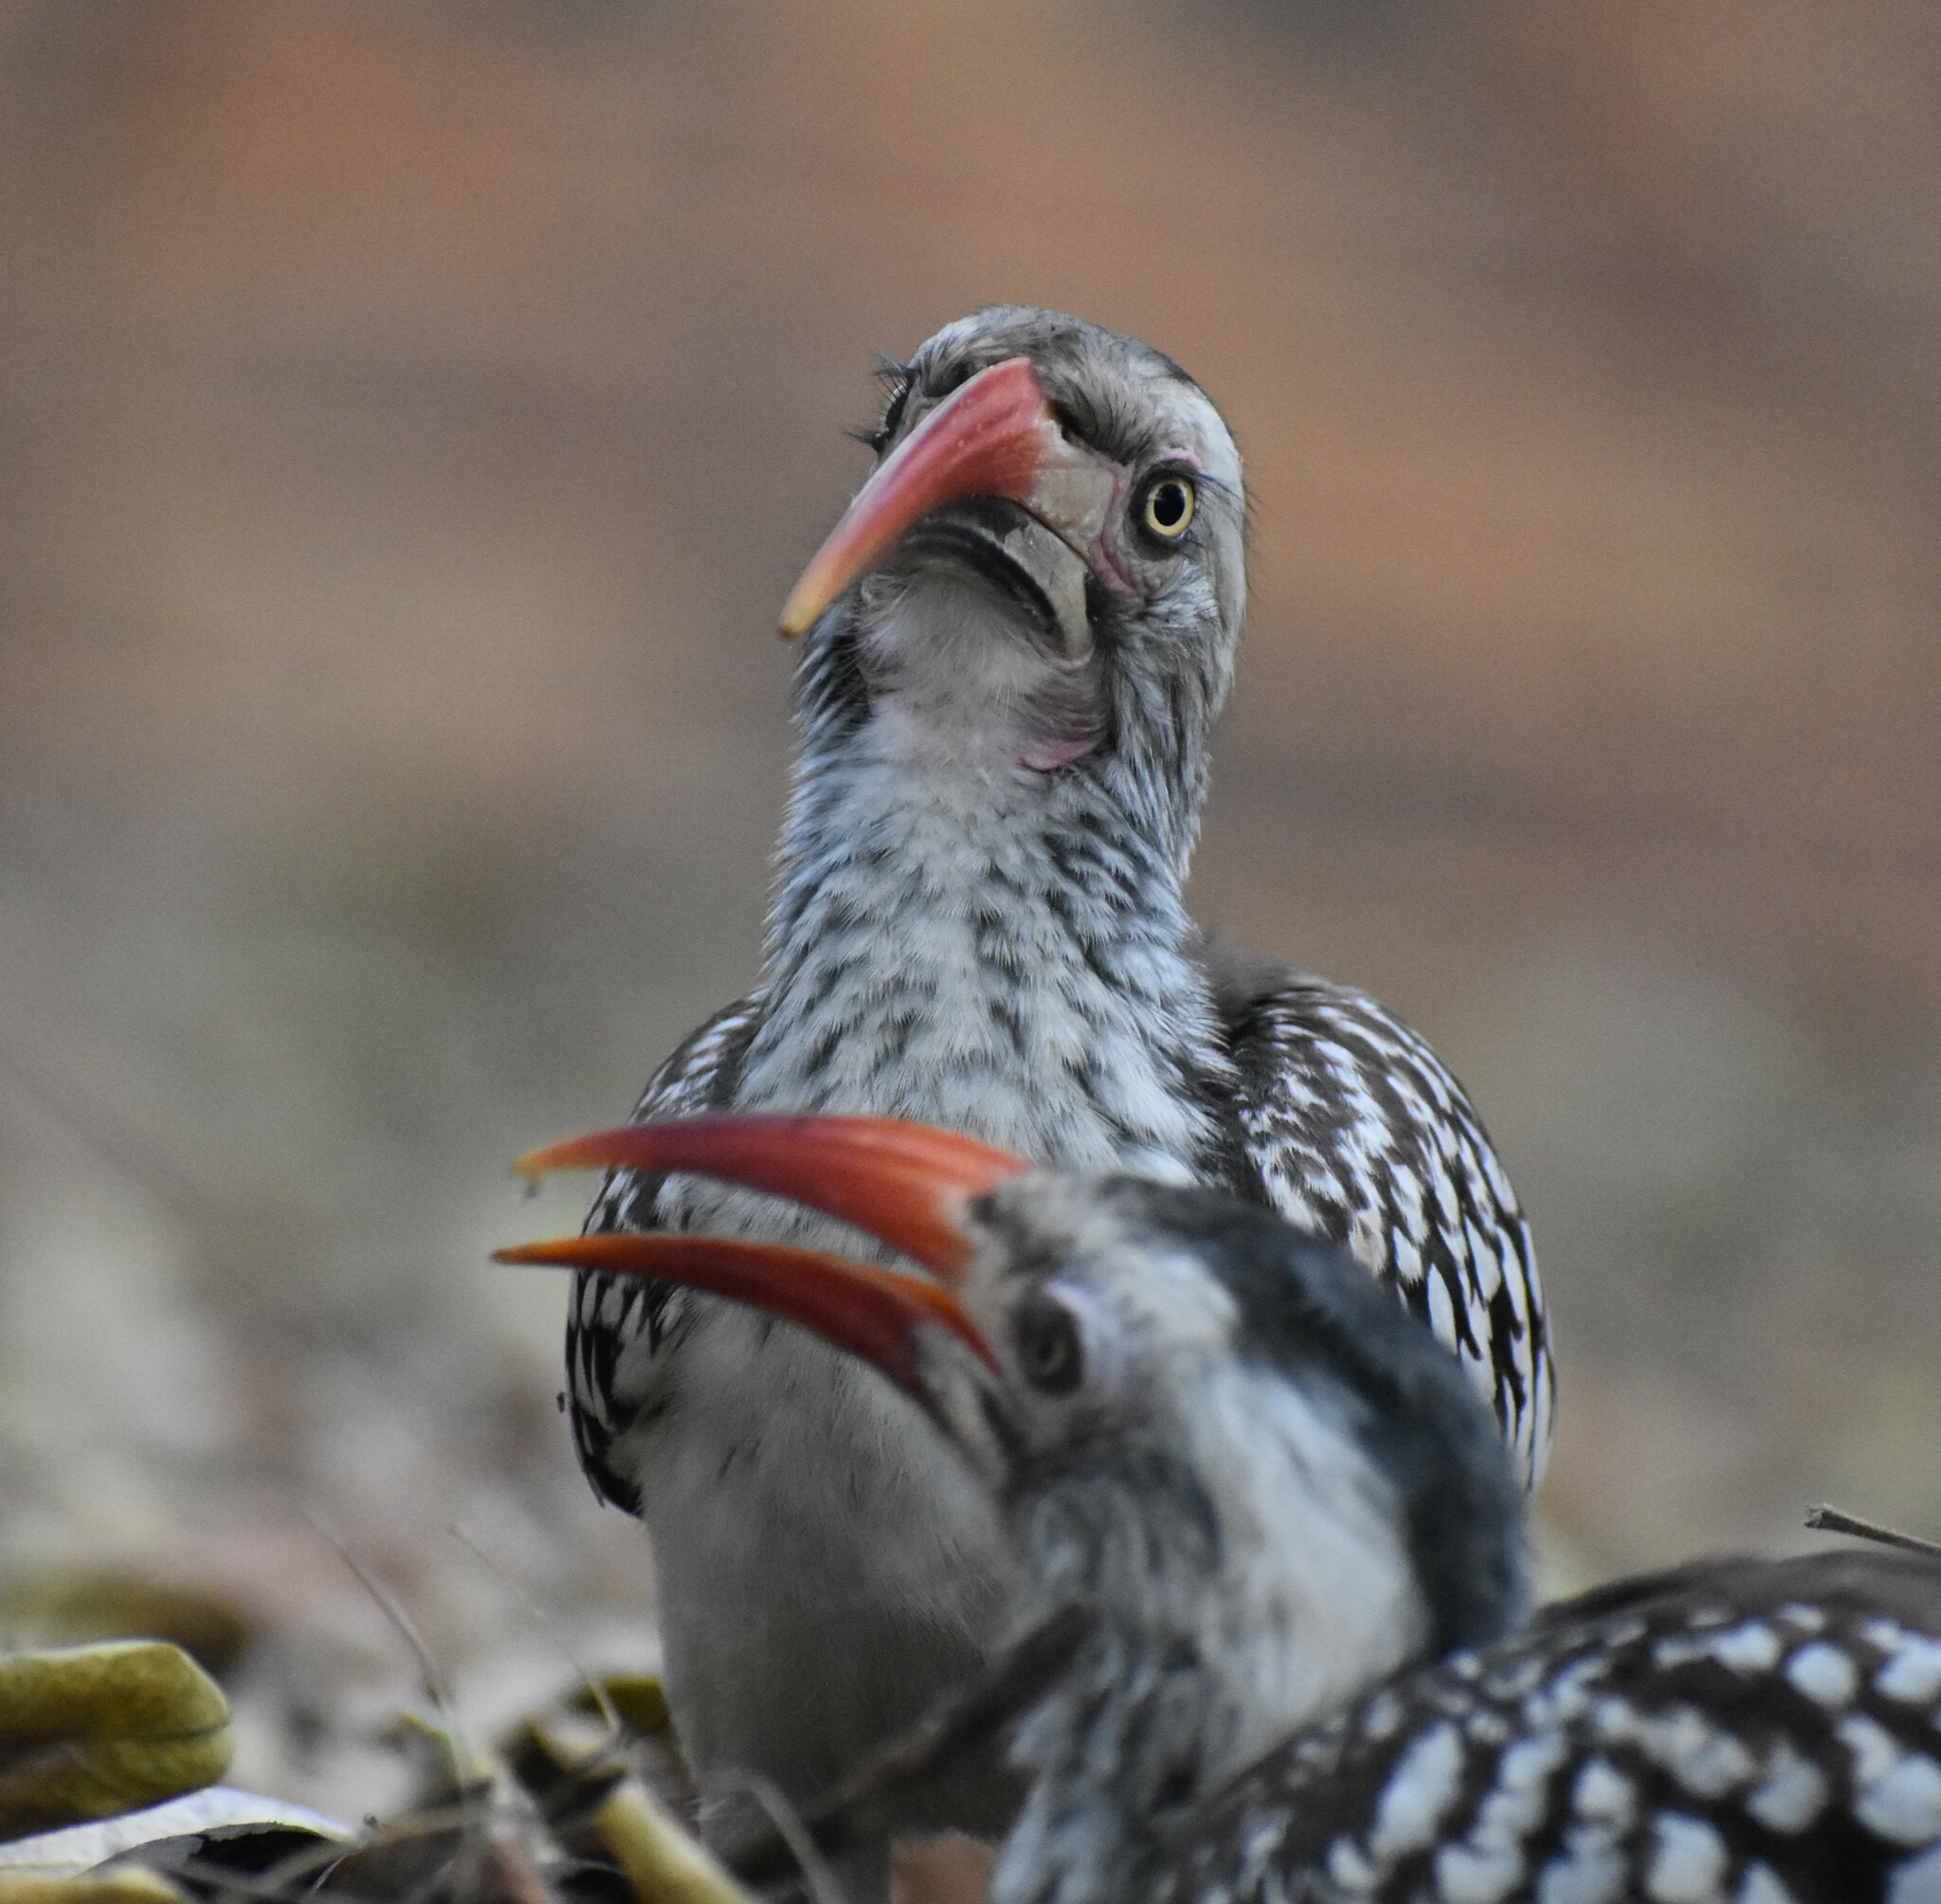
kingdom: Animalia
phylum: Chordata
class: Aves
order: Bucerotiformes
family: Bucerotidae
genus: Tockus
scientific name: Tockus rufirostris
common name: Southern red-billed hornbill
